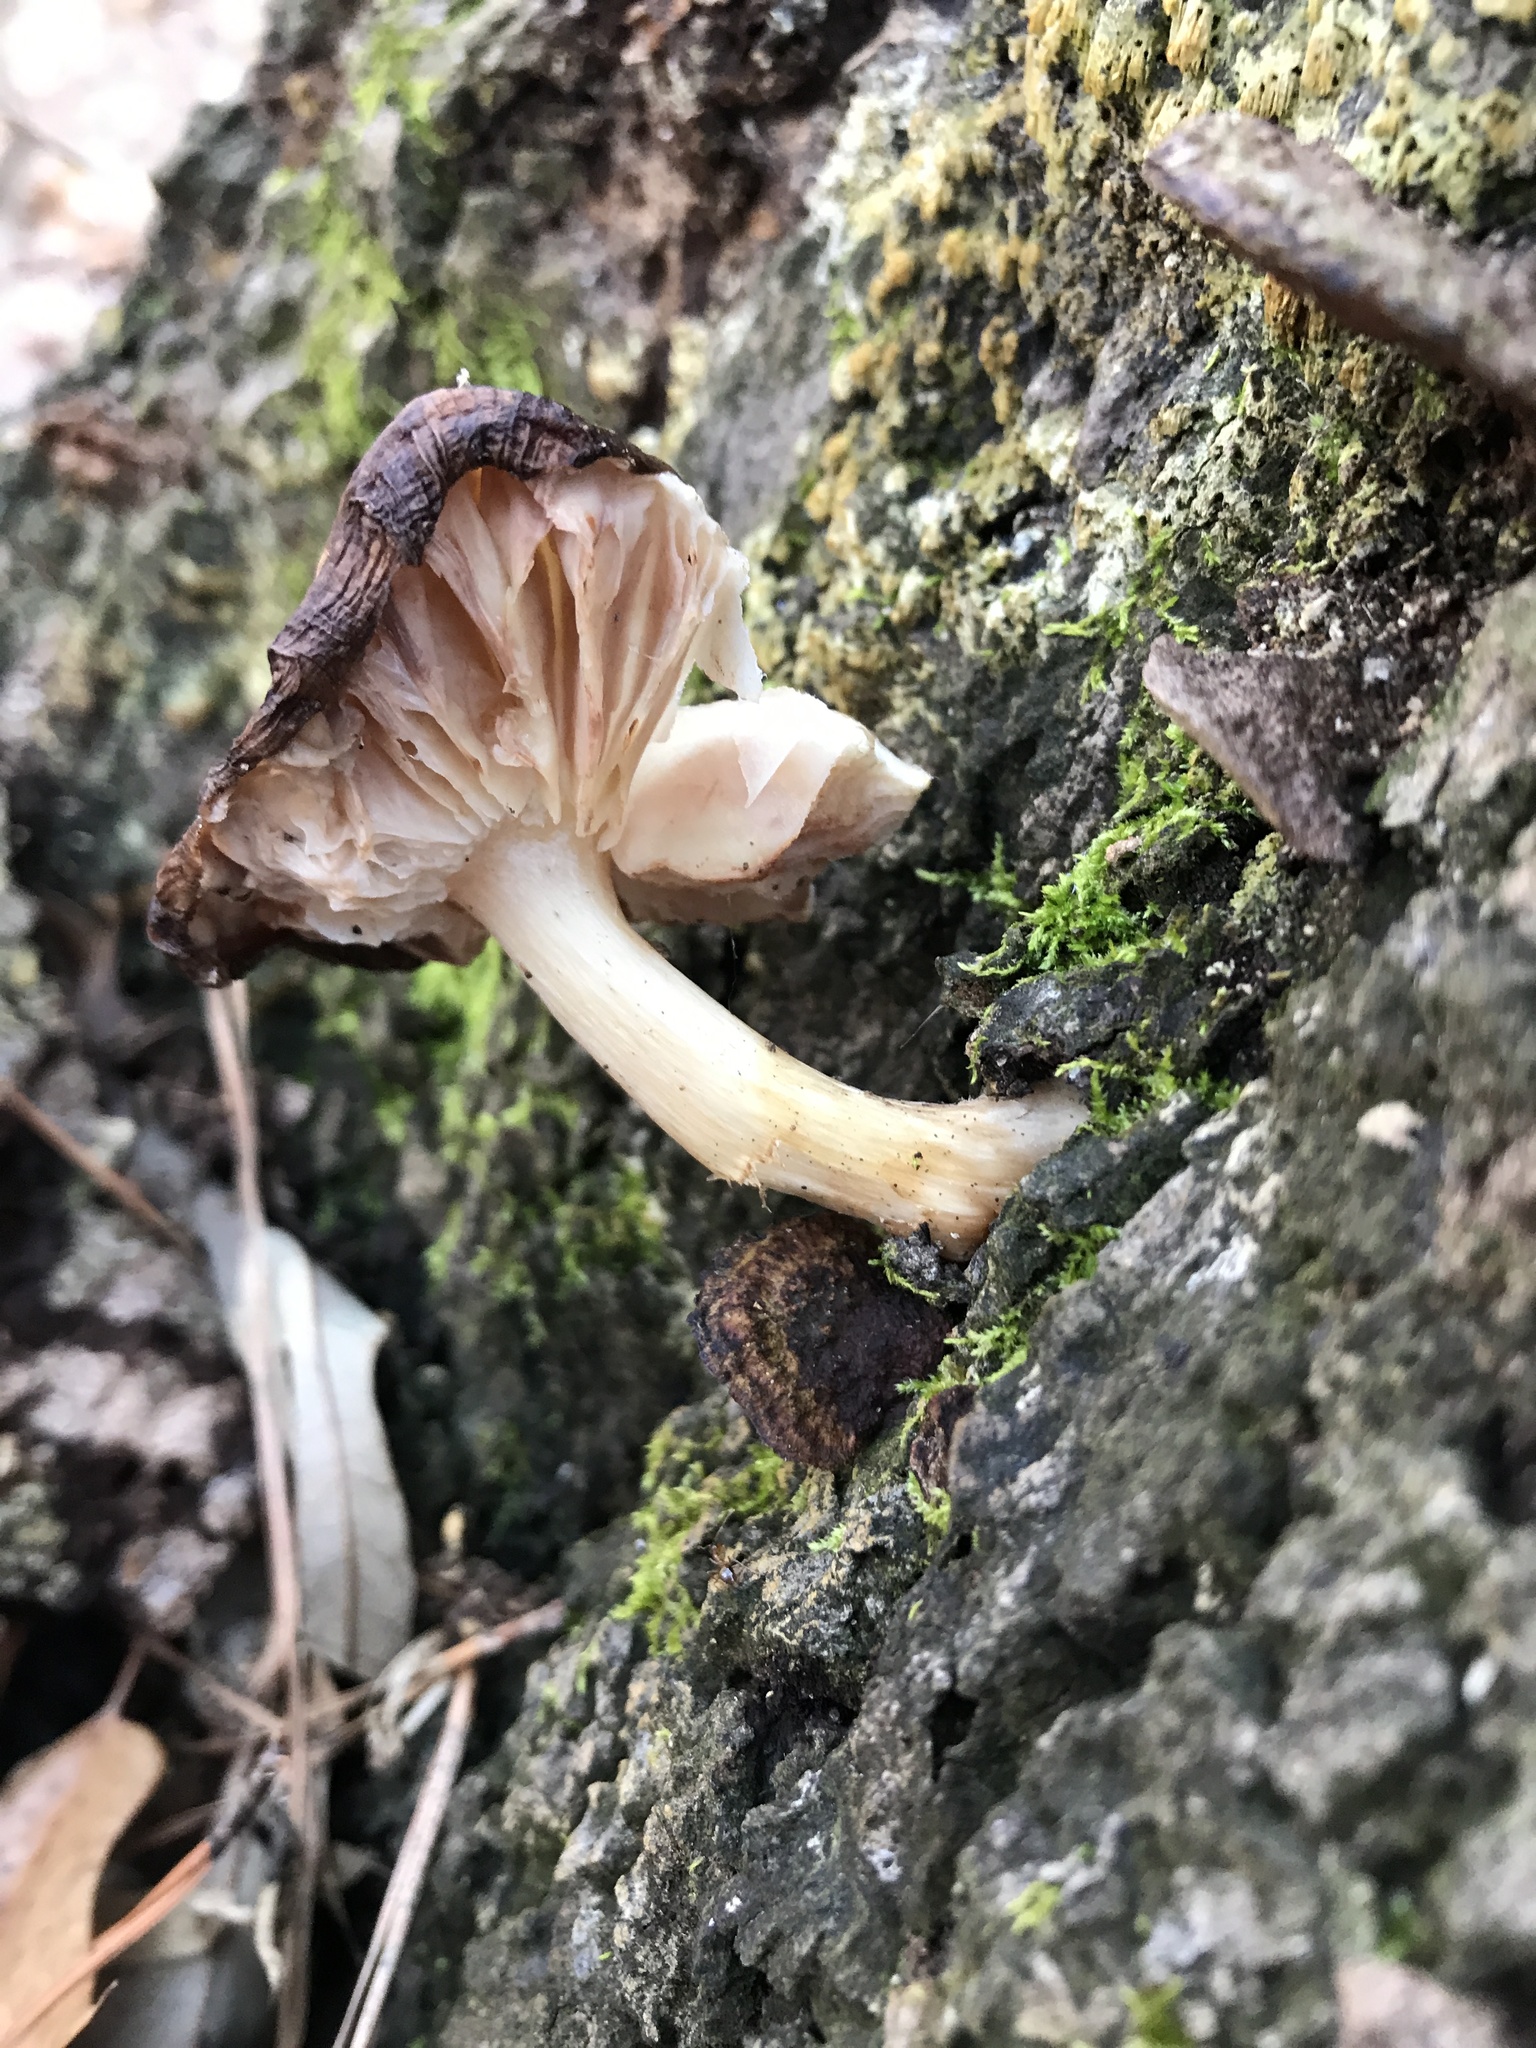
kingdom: Fungi
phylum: Basidiomycota
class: Agaricomycetes
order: Agaricales
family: Pluteaceae
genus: Pluteus
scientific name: Pluteus cervinus
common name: Deer shield
